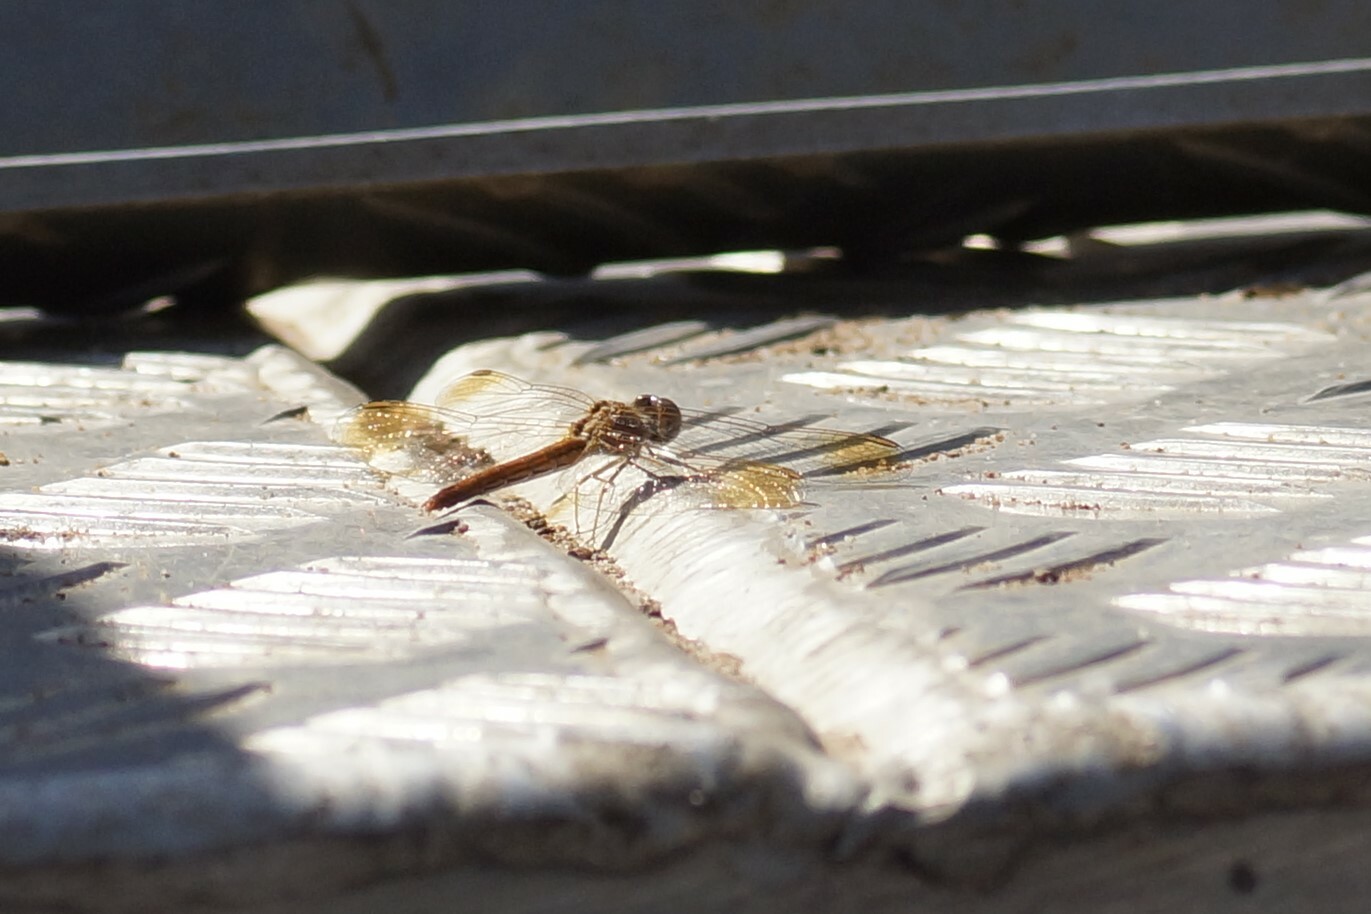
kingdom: Animalia
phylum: Arthropoda
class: Insecta
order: Odonata
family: Libellulidae
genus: Diplacodes
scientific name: Diplacodes haematodes
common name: Scarlet percher
